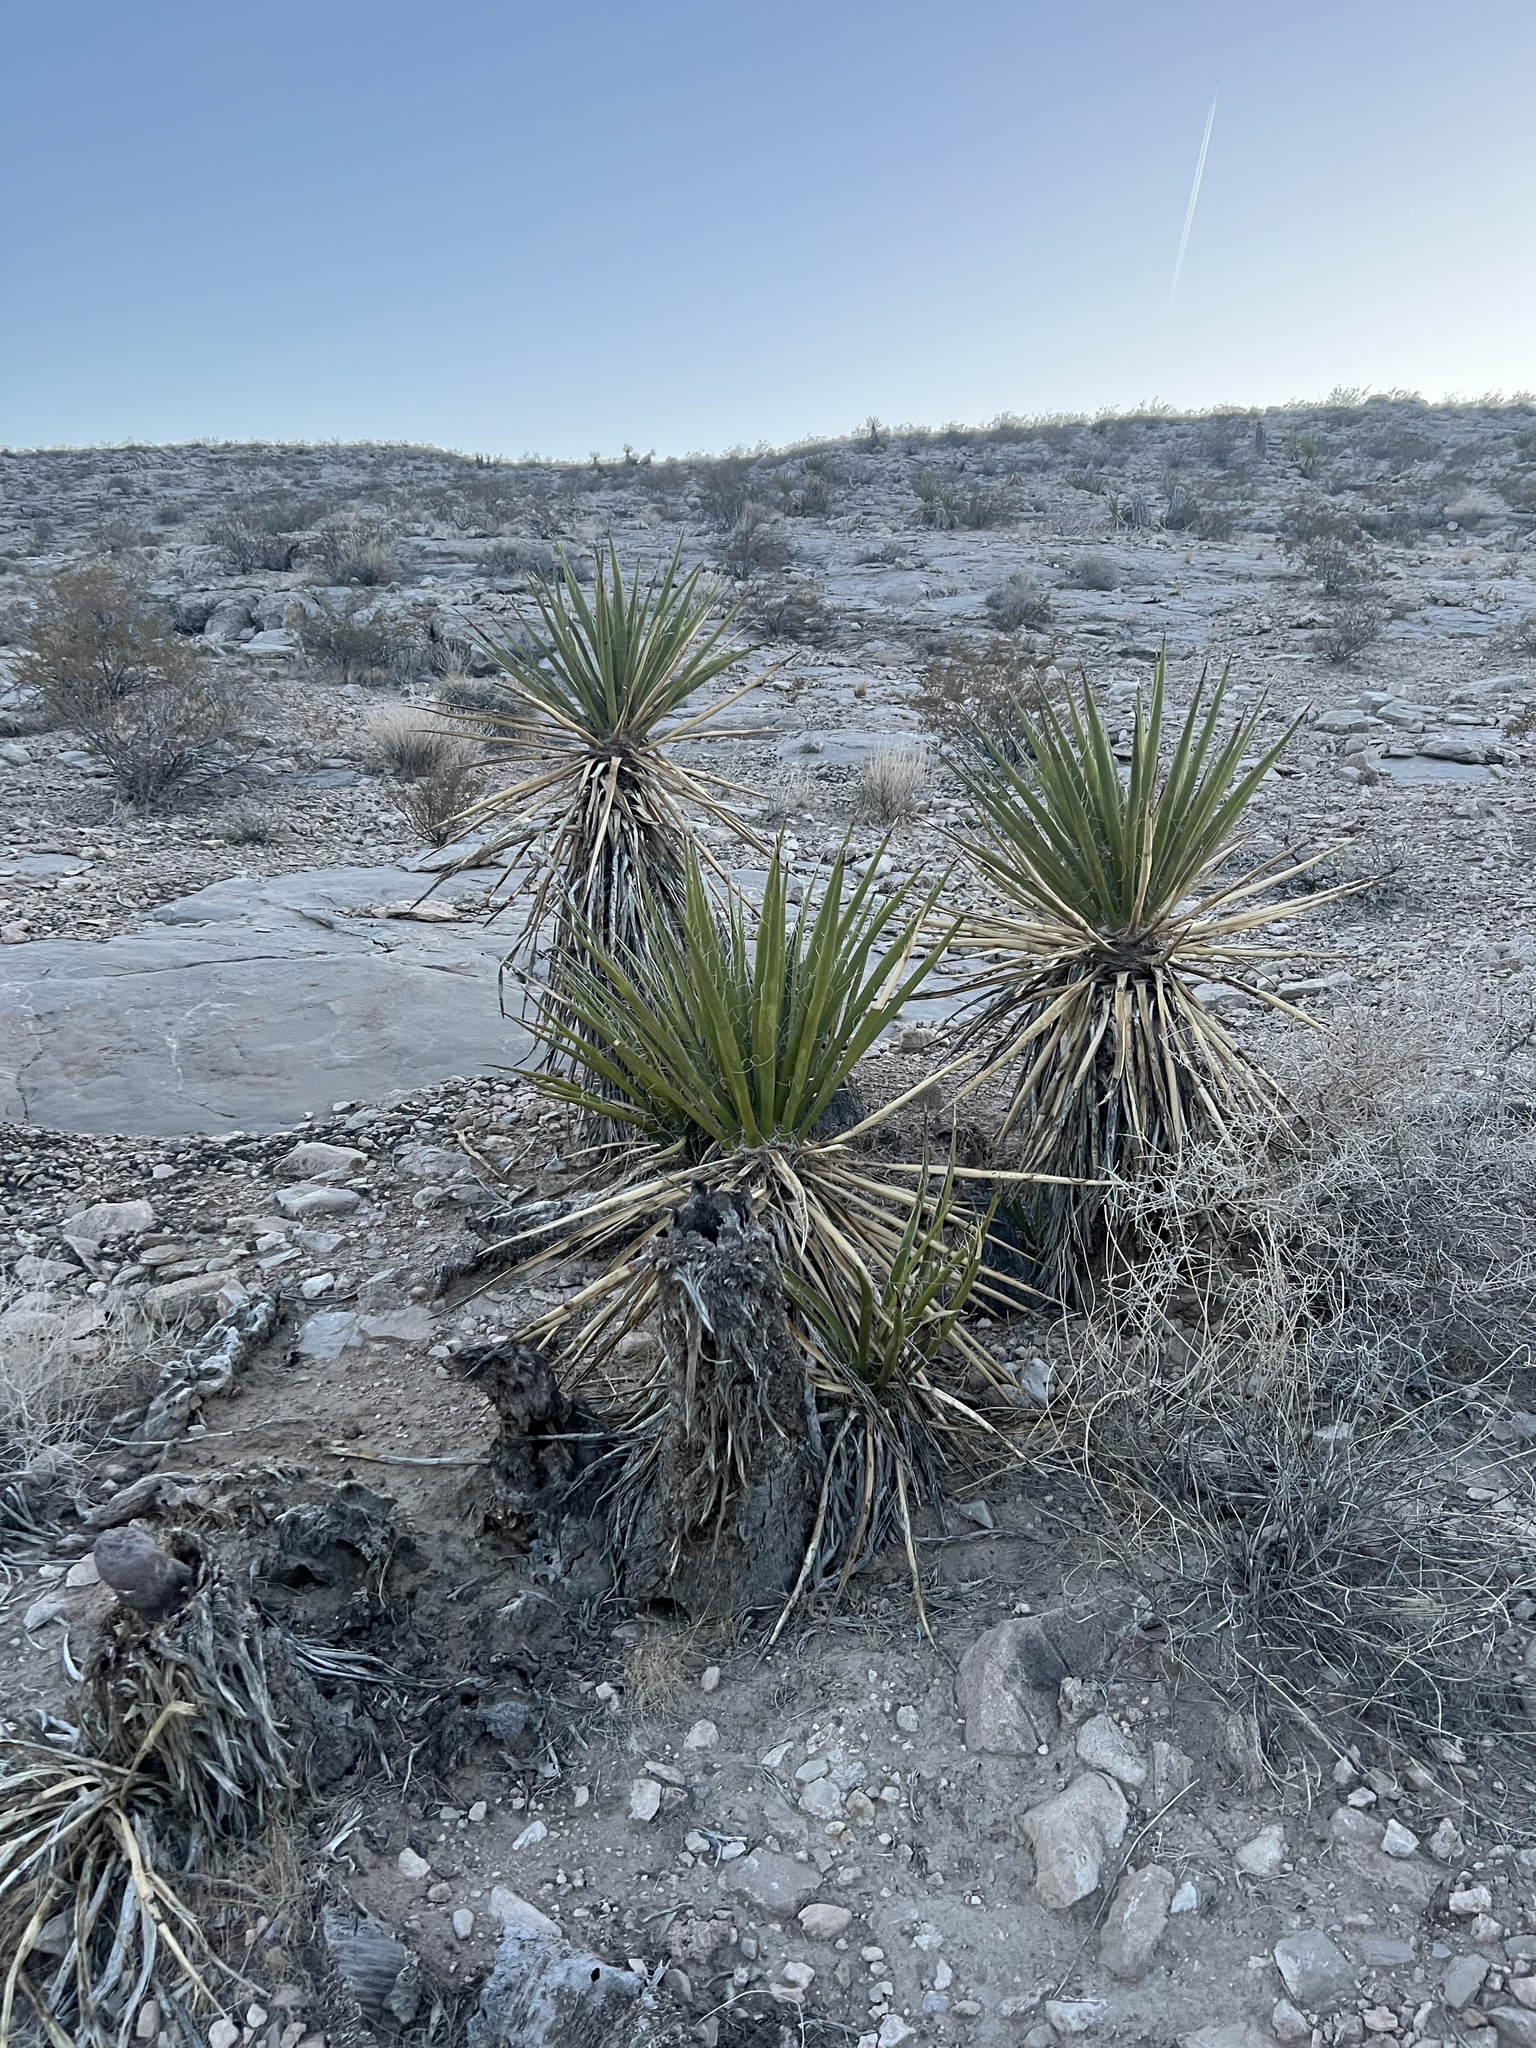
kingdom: Plantae
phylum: Tracheophyta
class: Liliopsida
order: Asparagales
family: Asparagaceae
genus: Yucca
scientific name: Yucca schidigera
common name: Mojave yucca
